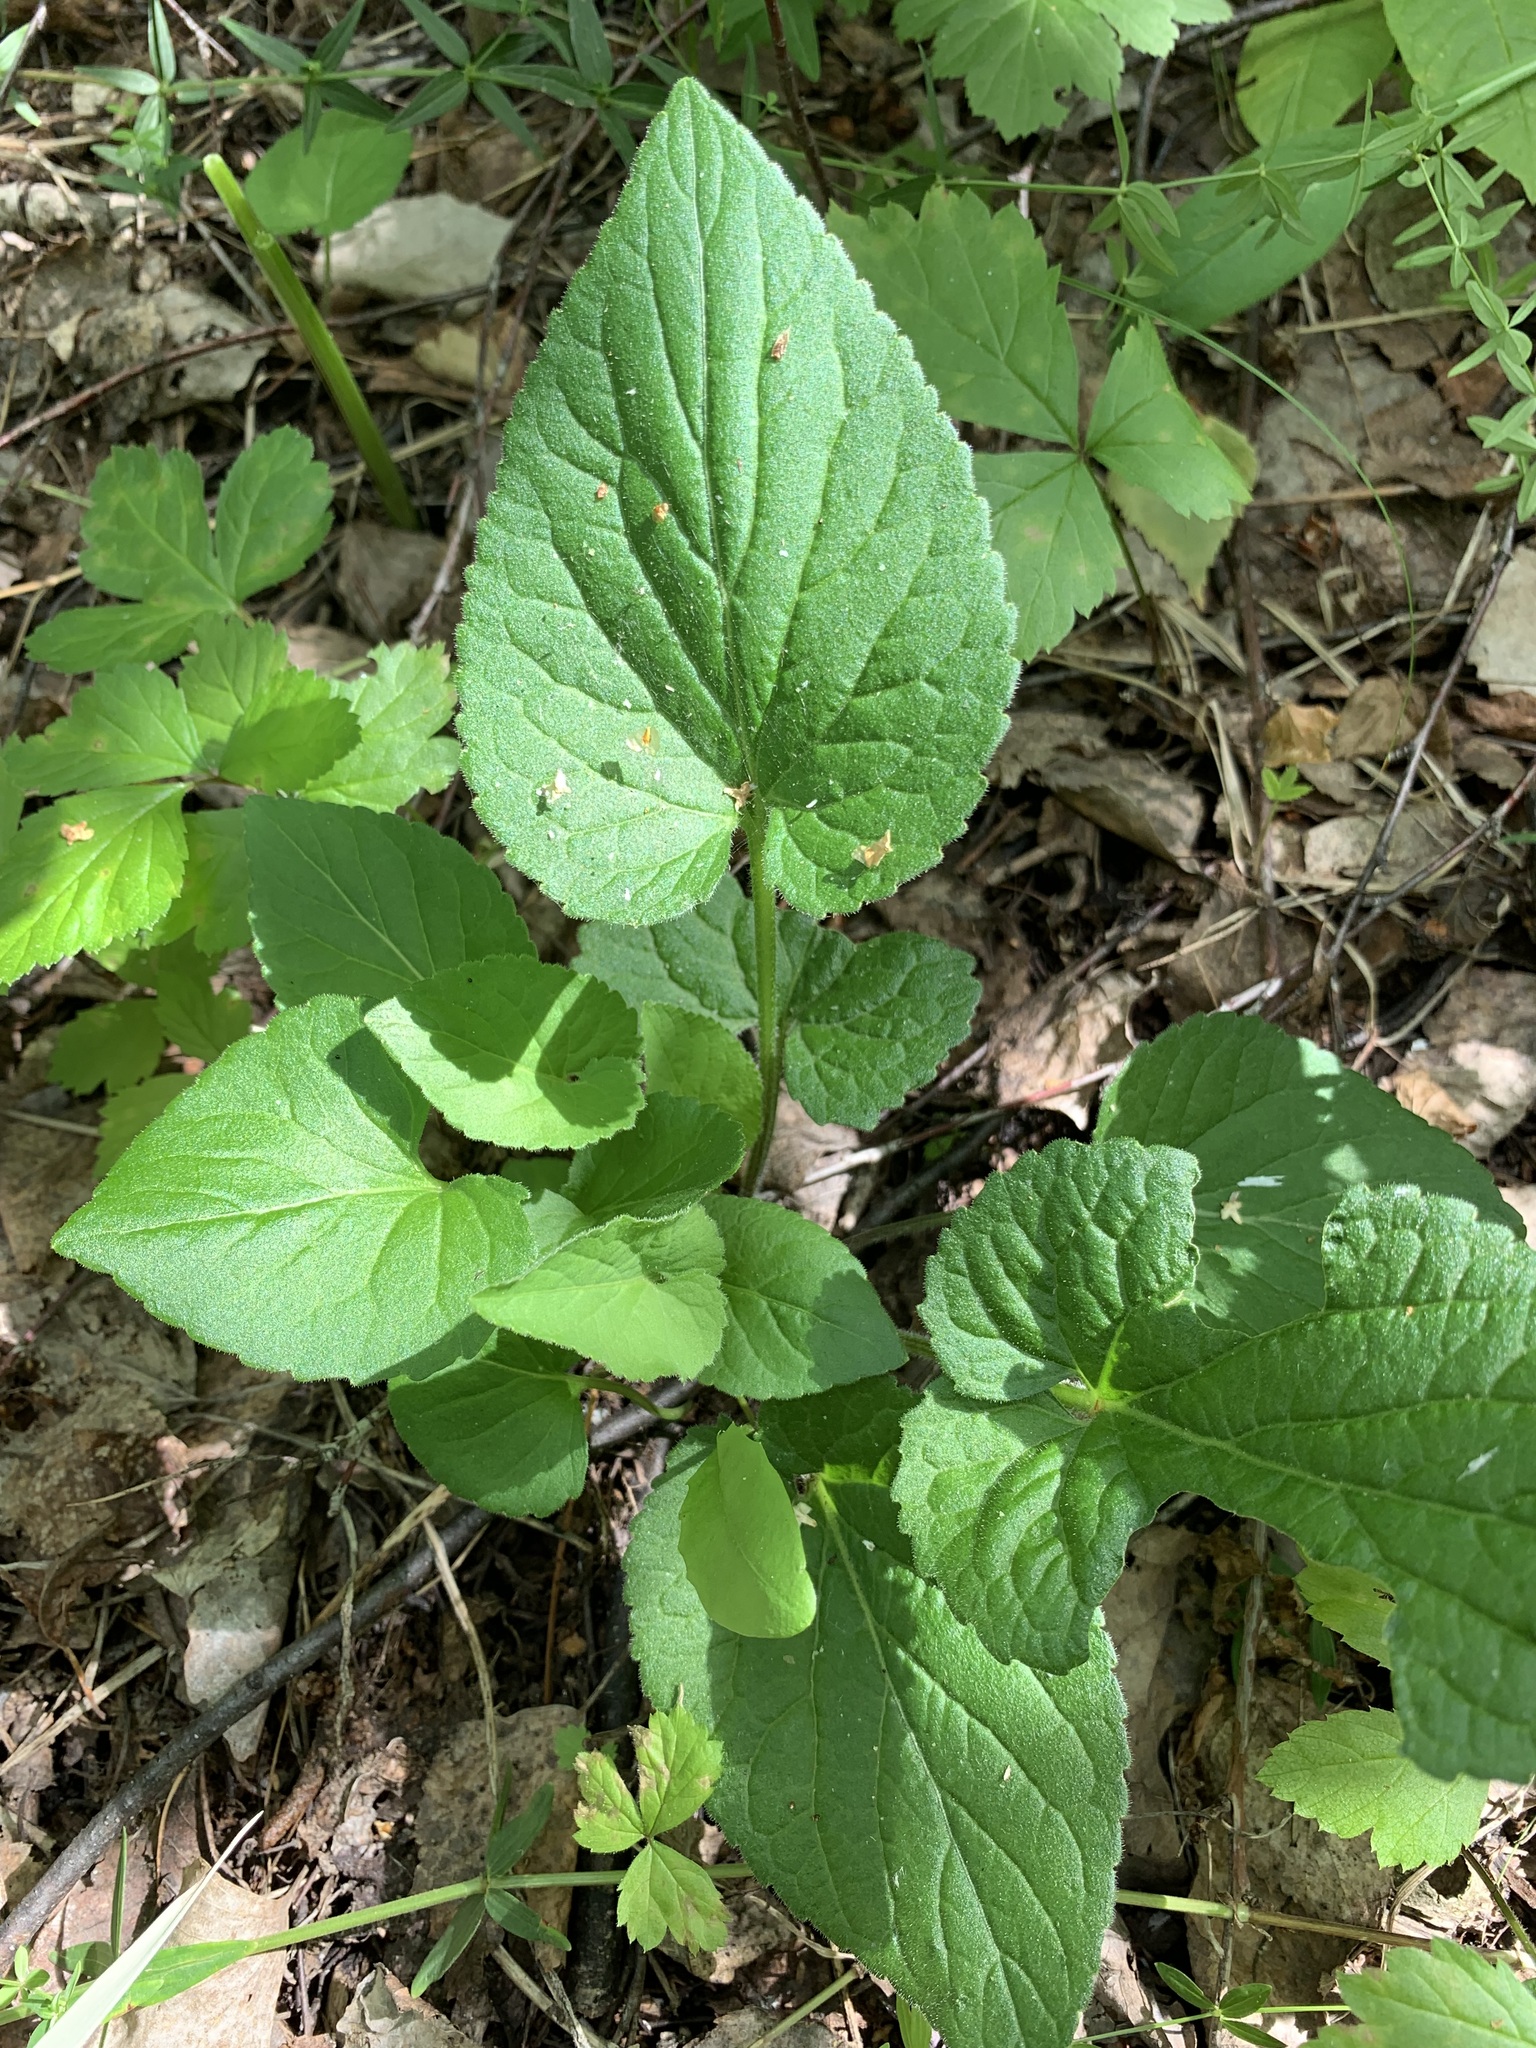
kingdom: Plantae
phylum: Tracheophyta
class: Magnoliopsida
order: Malpighiales
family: Violaceae
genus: Viola
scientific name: Viola hirta
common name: Hairy violet
